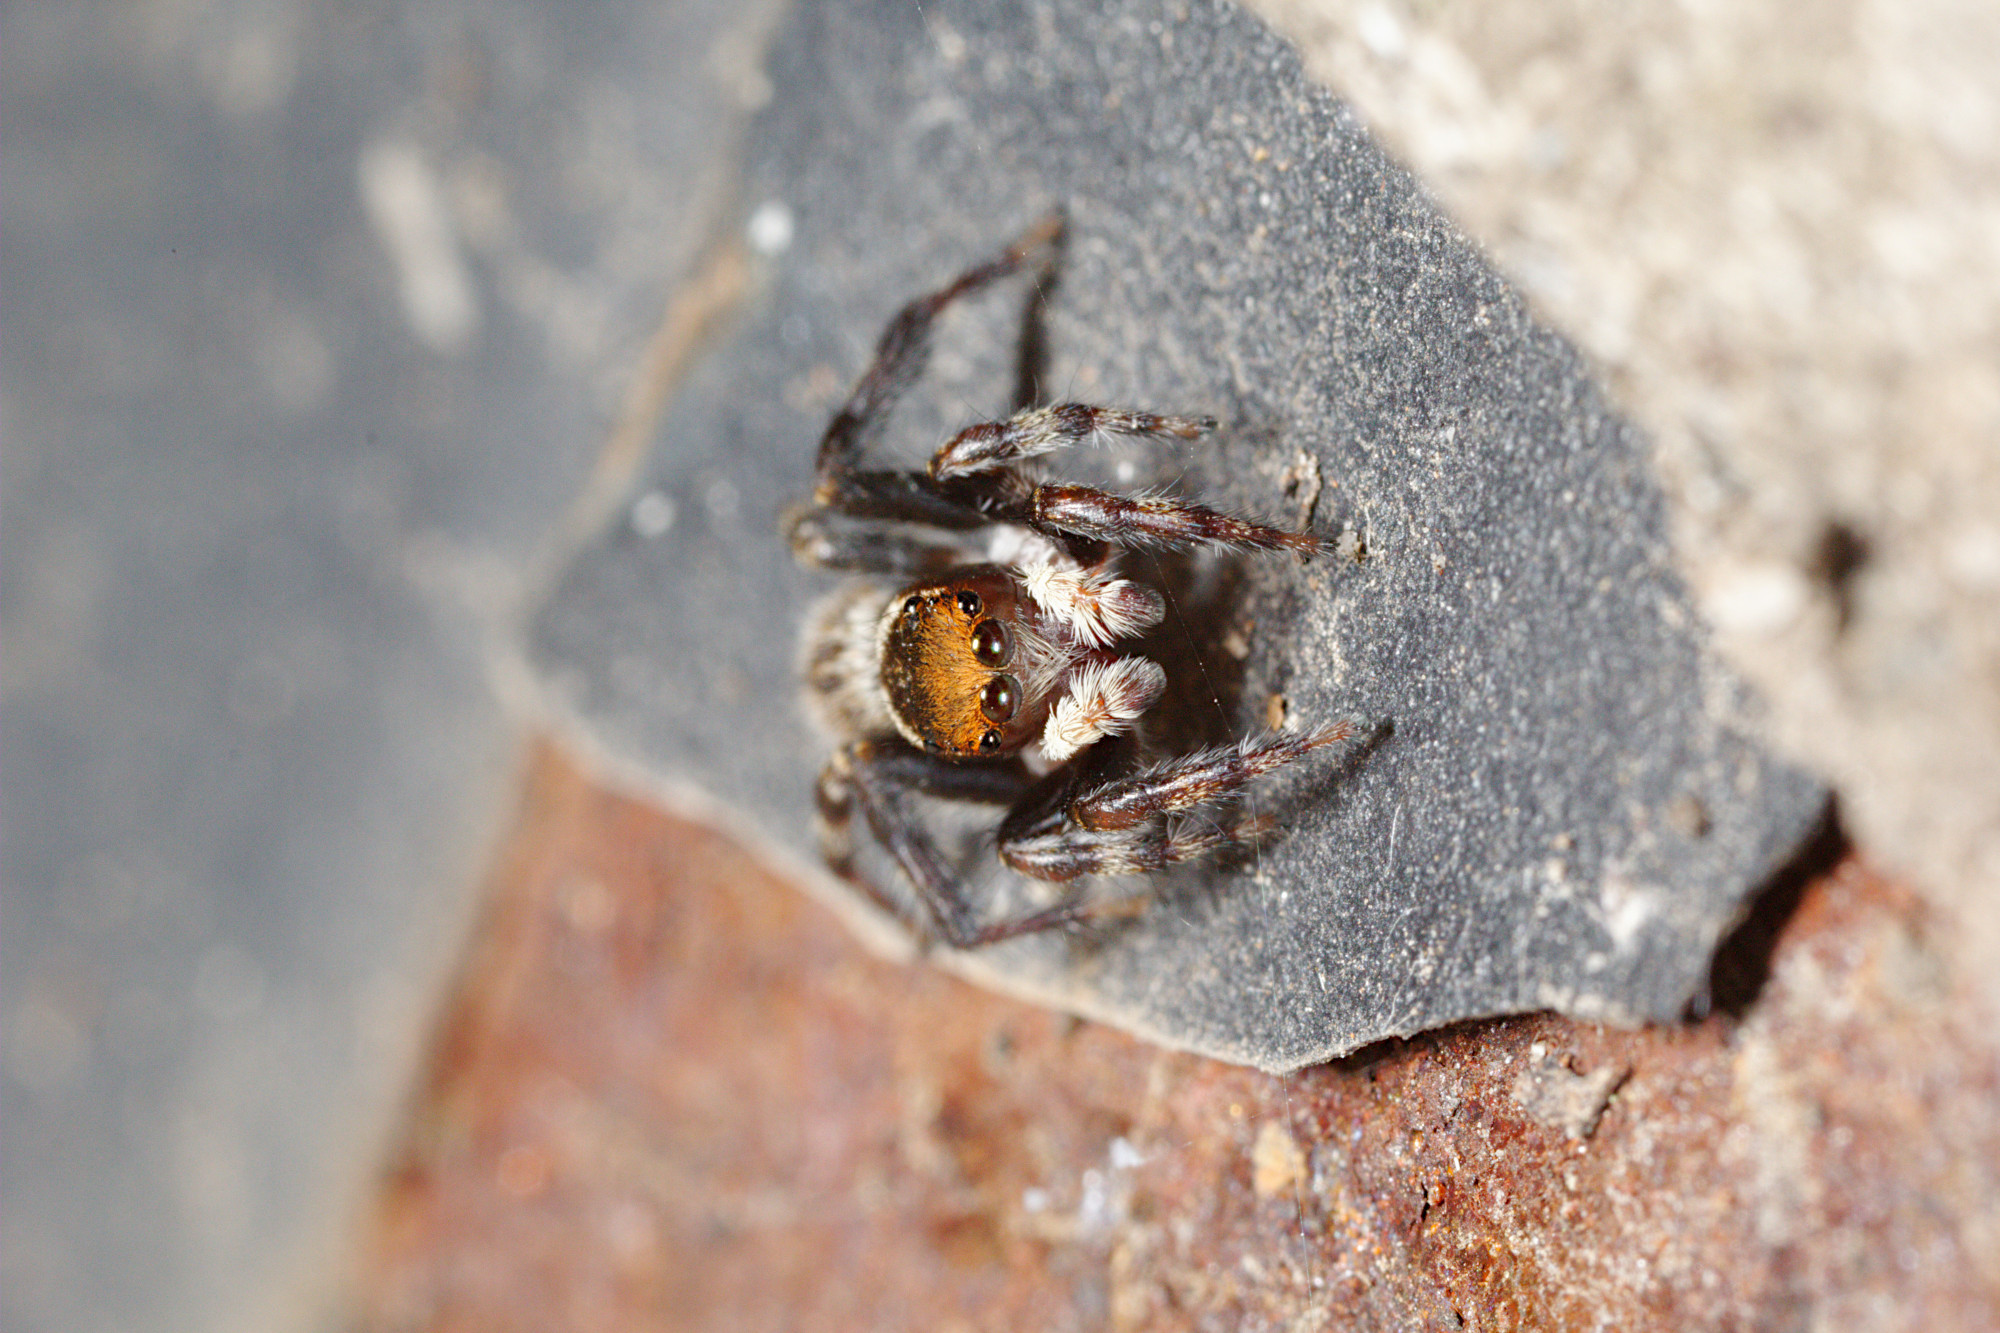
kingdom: Animalia
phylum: Arthropoda
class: Arachnida
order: Araneae
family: Salticidae
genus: Maratus
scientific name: Maratus griseus
